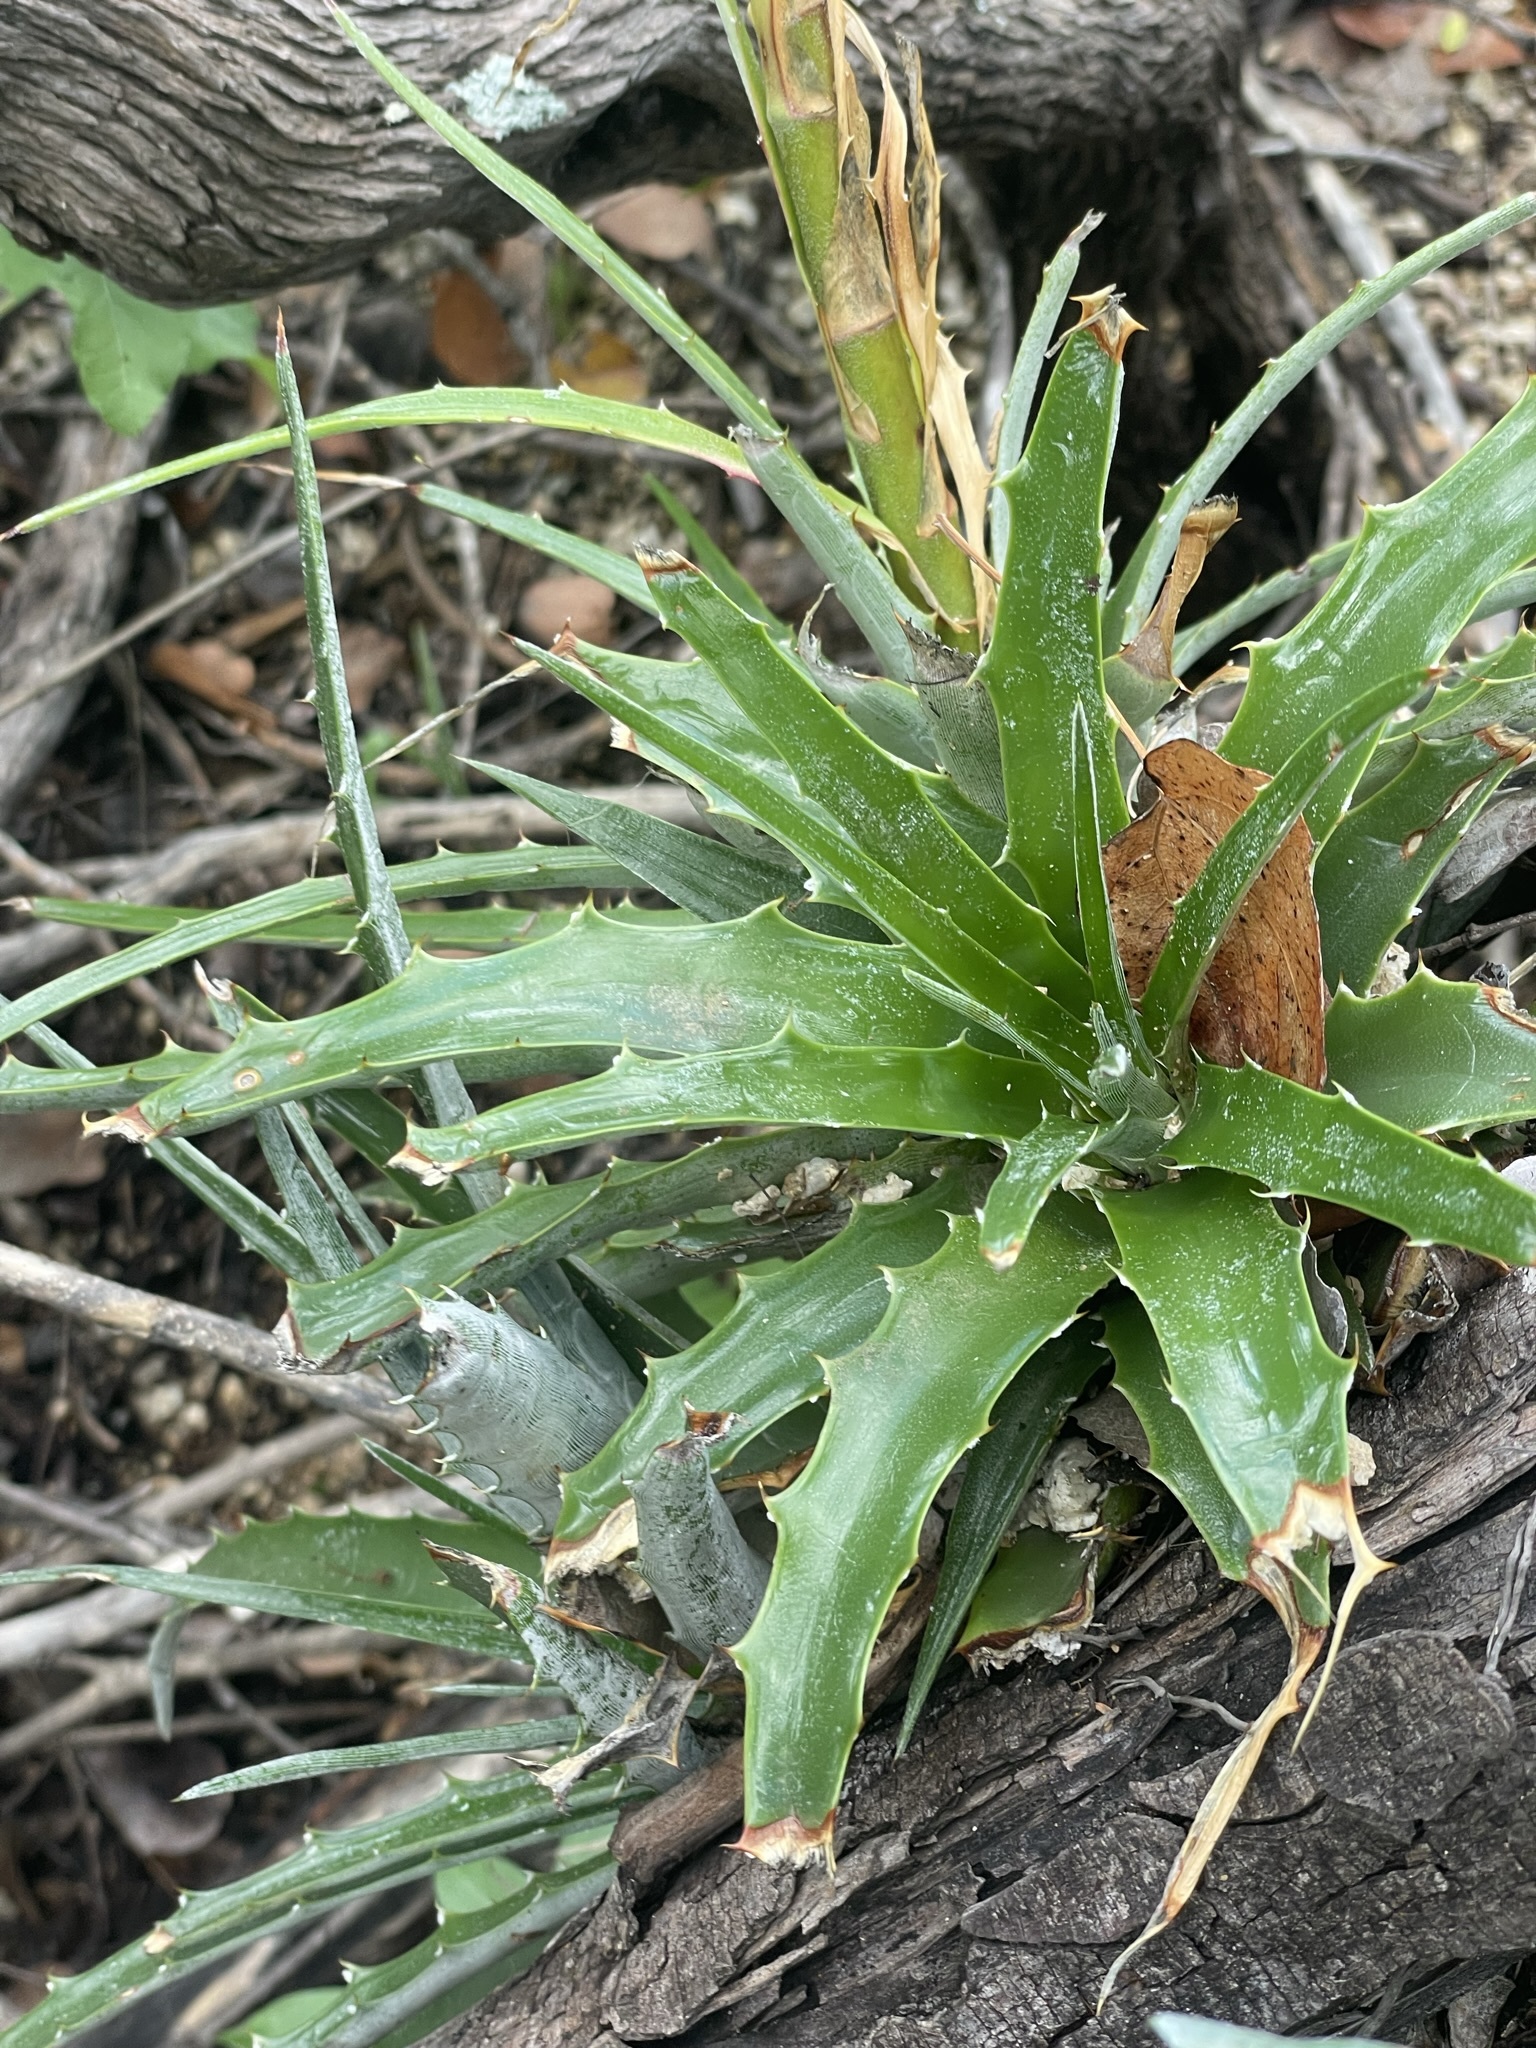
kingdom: Plantae
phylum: Tracheophyta
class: Liliopsida
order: Poales
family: Bromeliaceae
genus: Hechtia
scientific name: Hechtia montana
